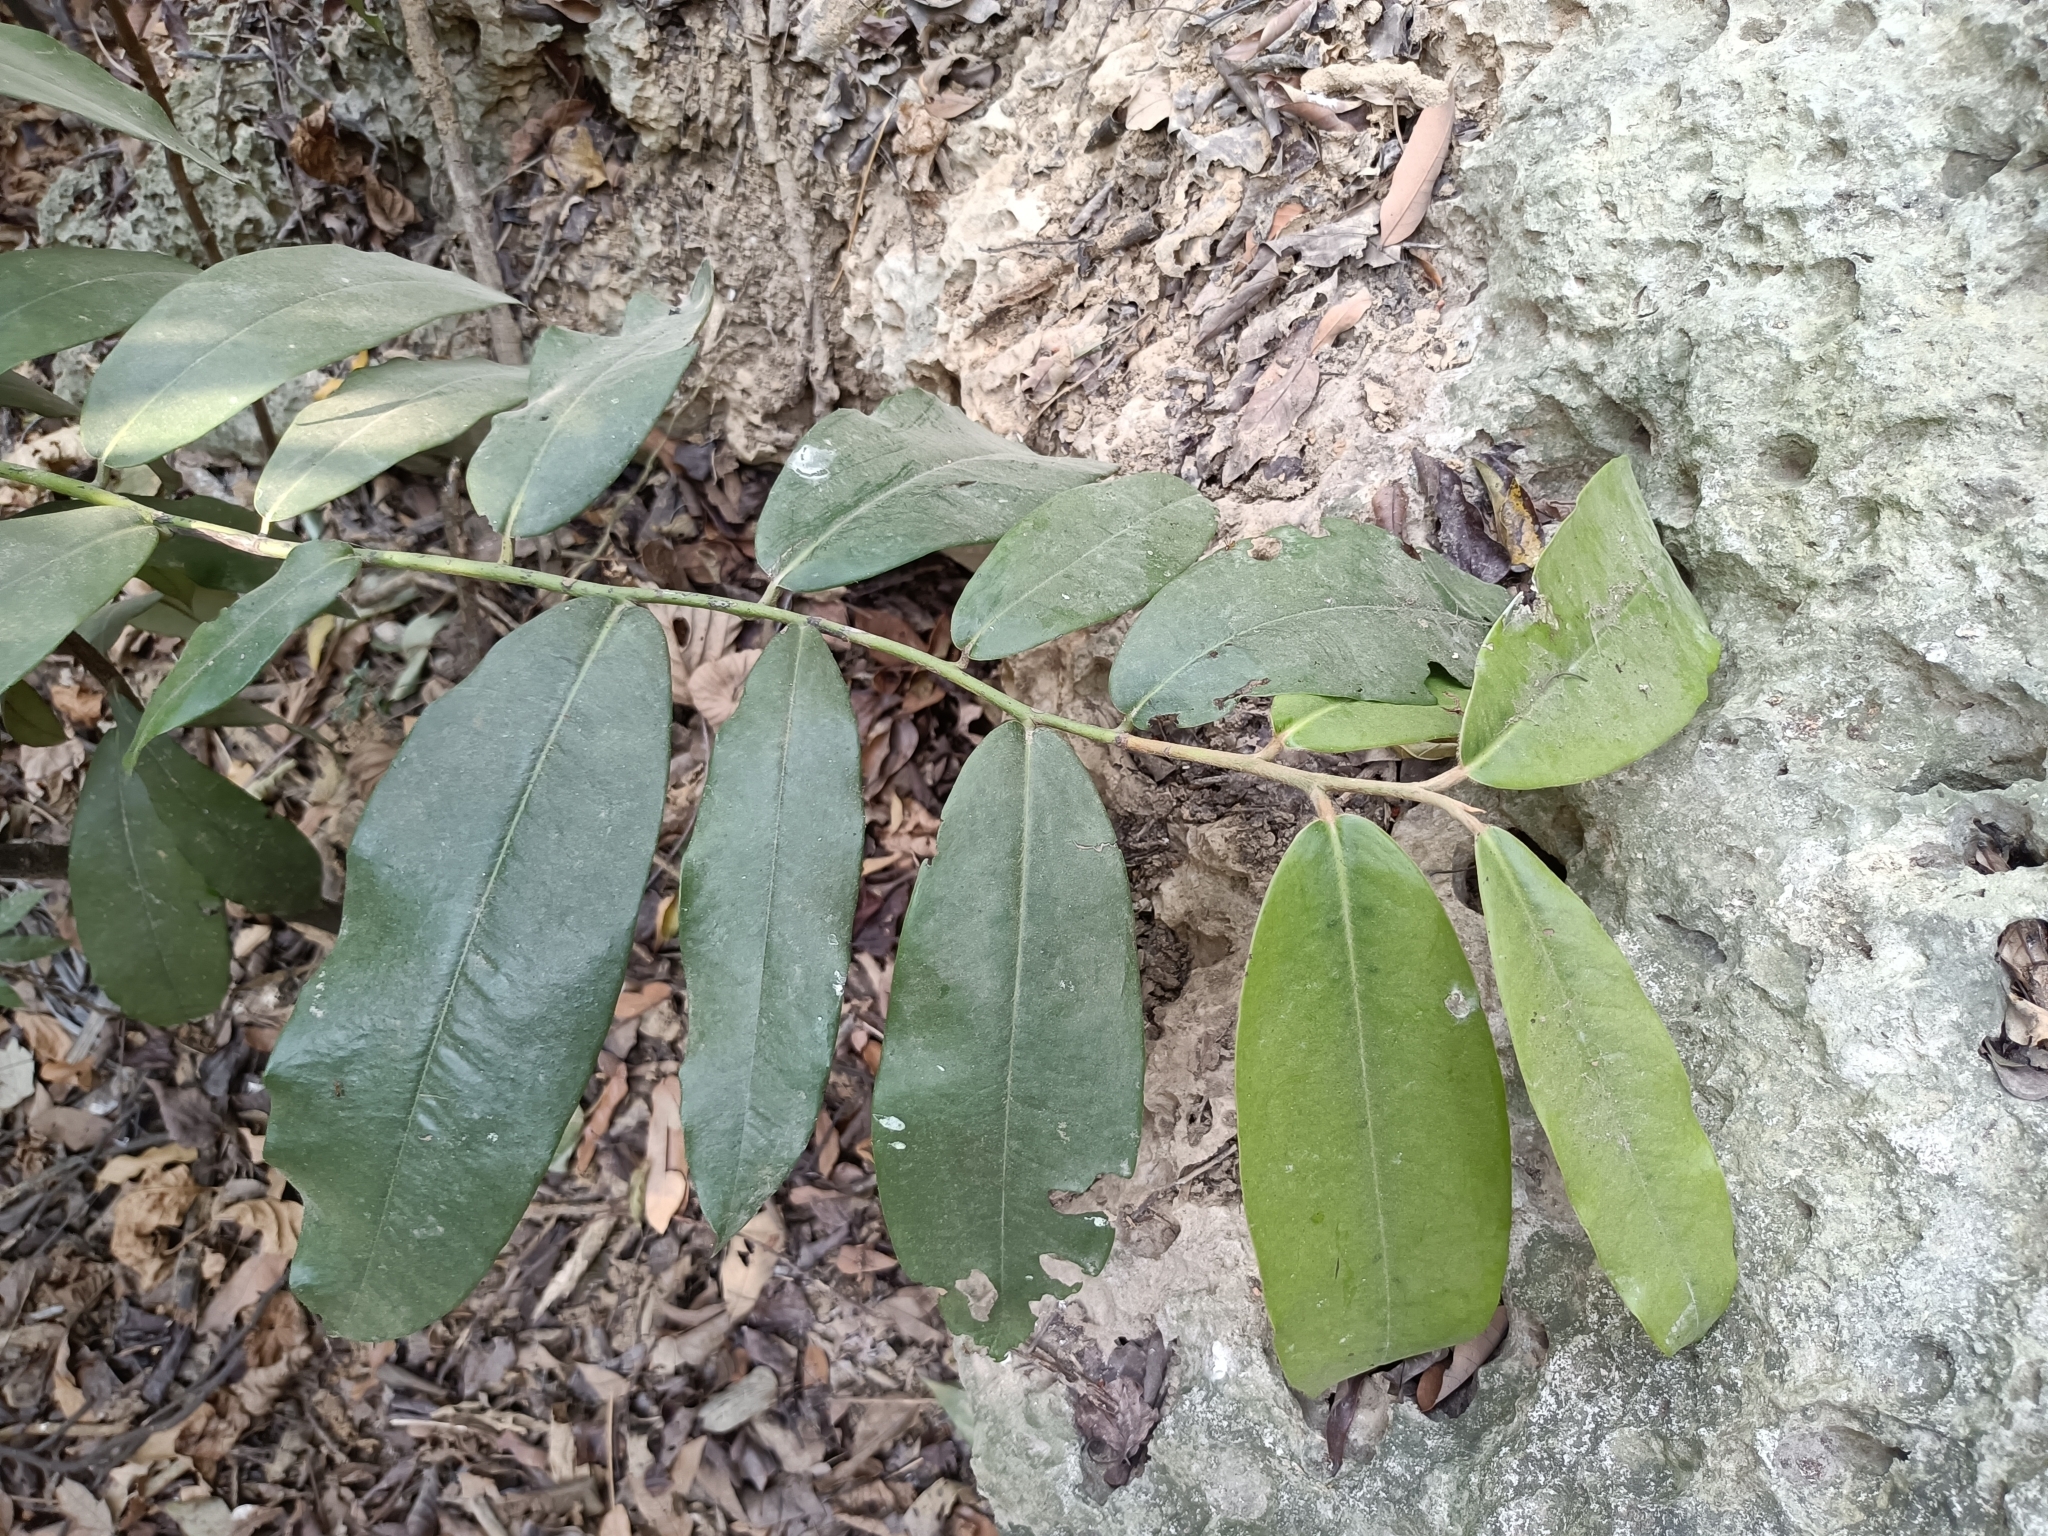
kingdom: Plantae
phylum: Tracheophyta
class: Magnoliopsida
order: Ericales
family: Ebenaceae
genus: Diospyros
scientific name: Diospyros blancoi
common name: Mabola-tree
